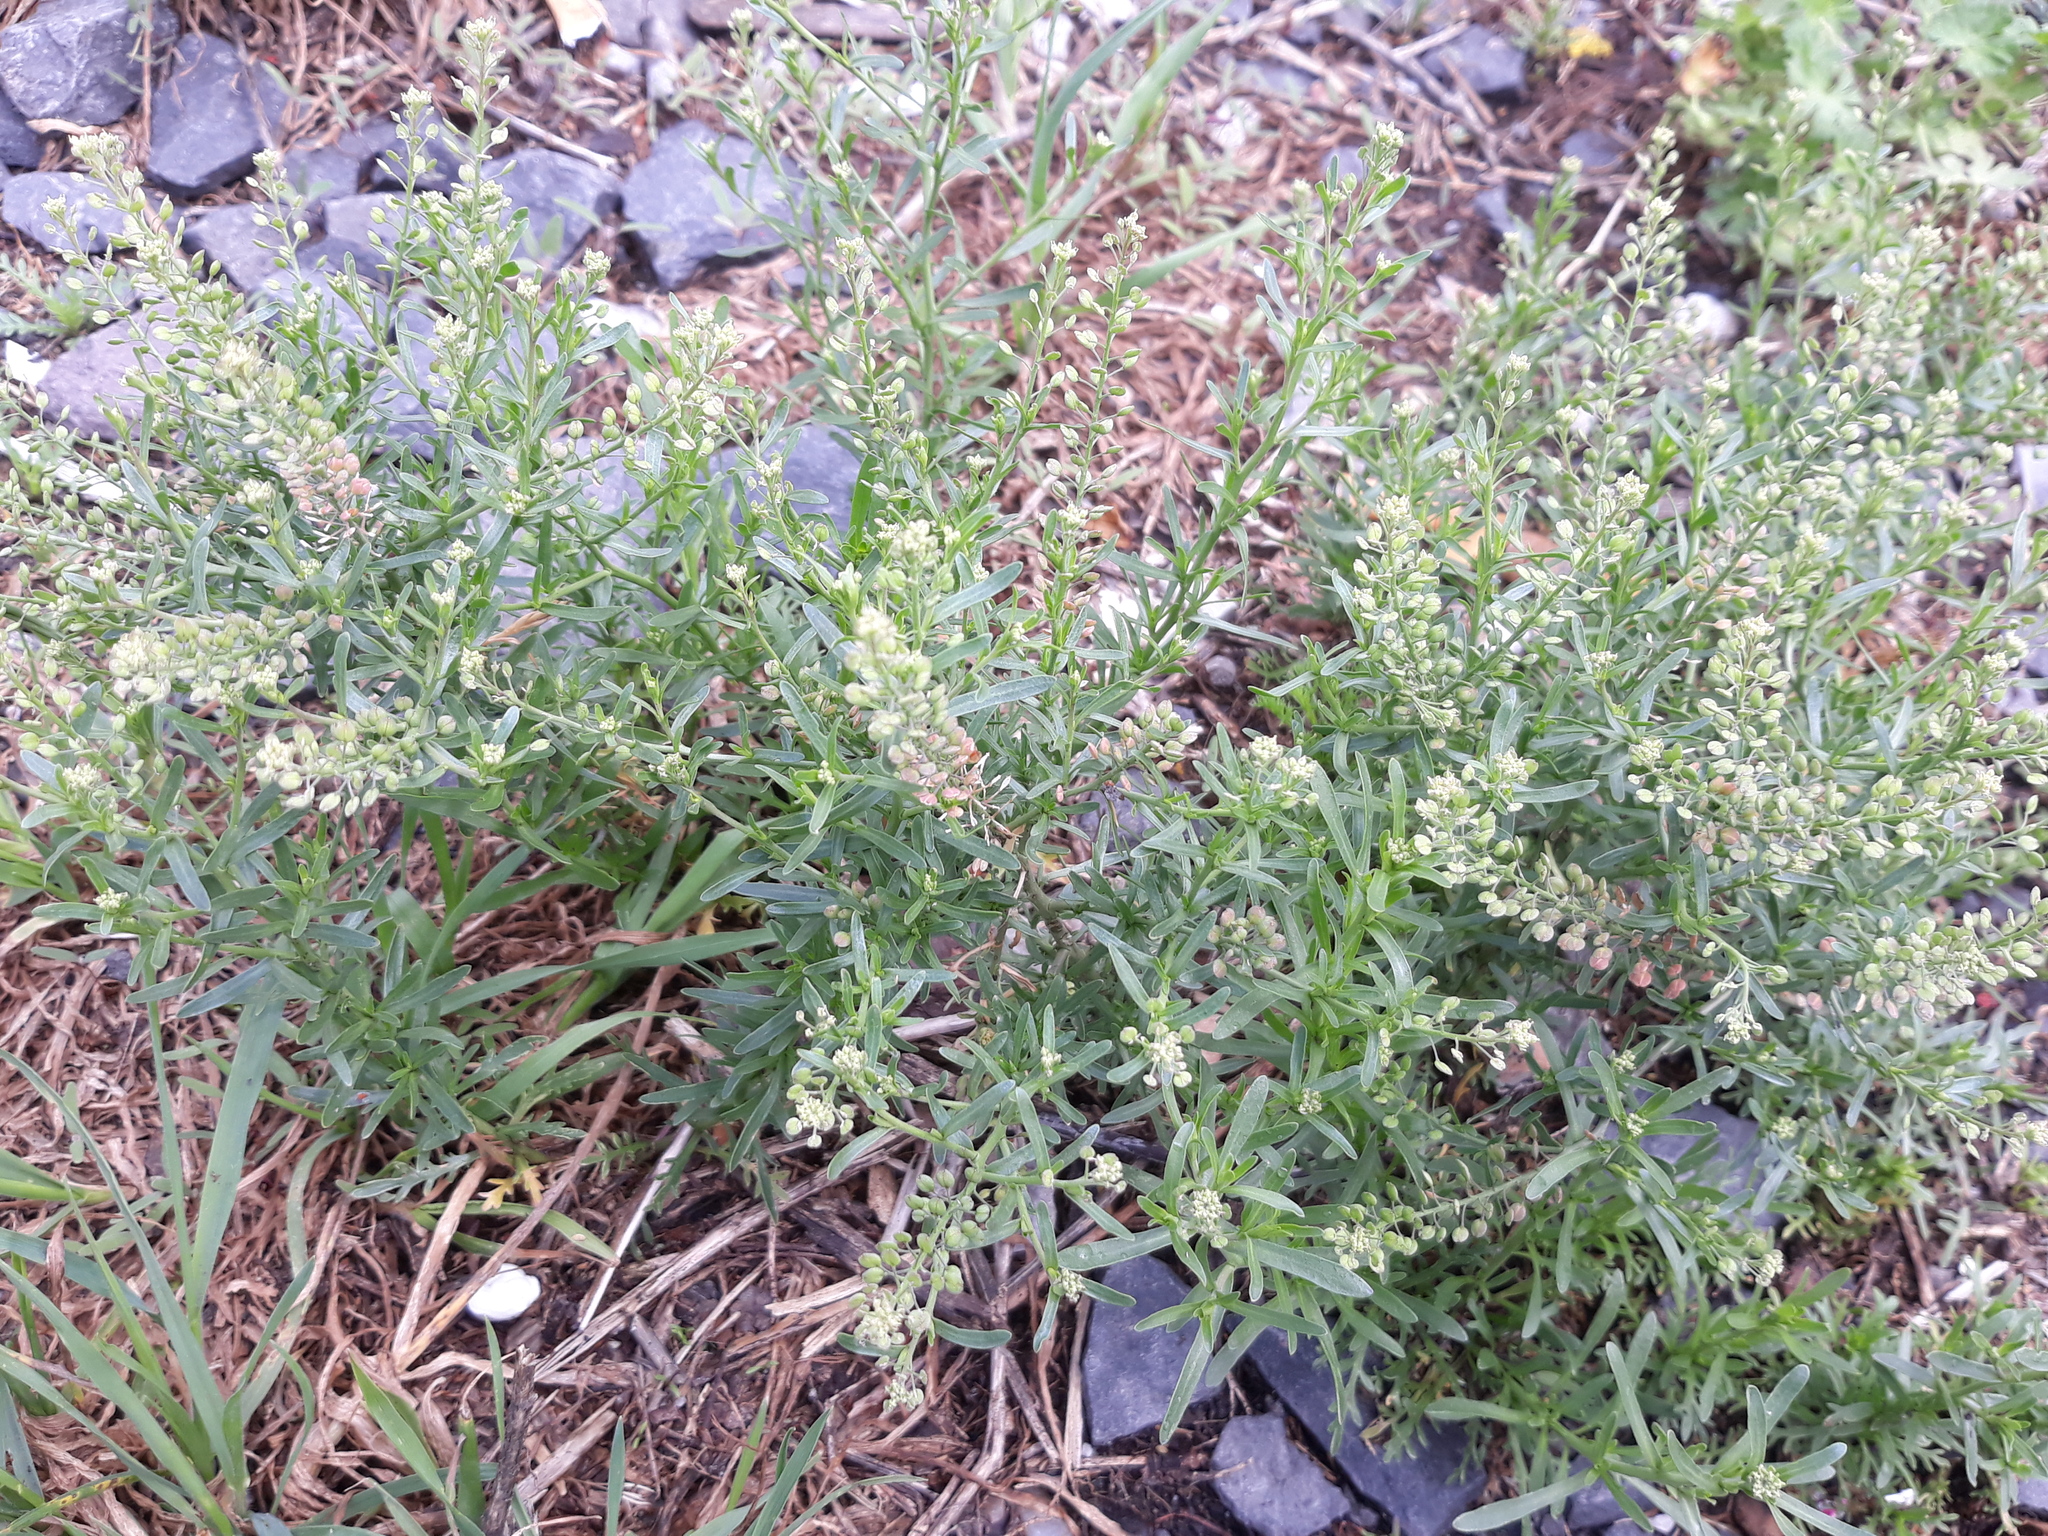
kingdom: Plantae
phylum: Tracheophyta
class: Magnoliopsida
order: Brassicales
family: Brassicaceae
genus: Lepidium
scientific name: Lepidium ruderale
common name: Narrow-leaved pepperwort
